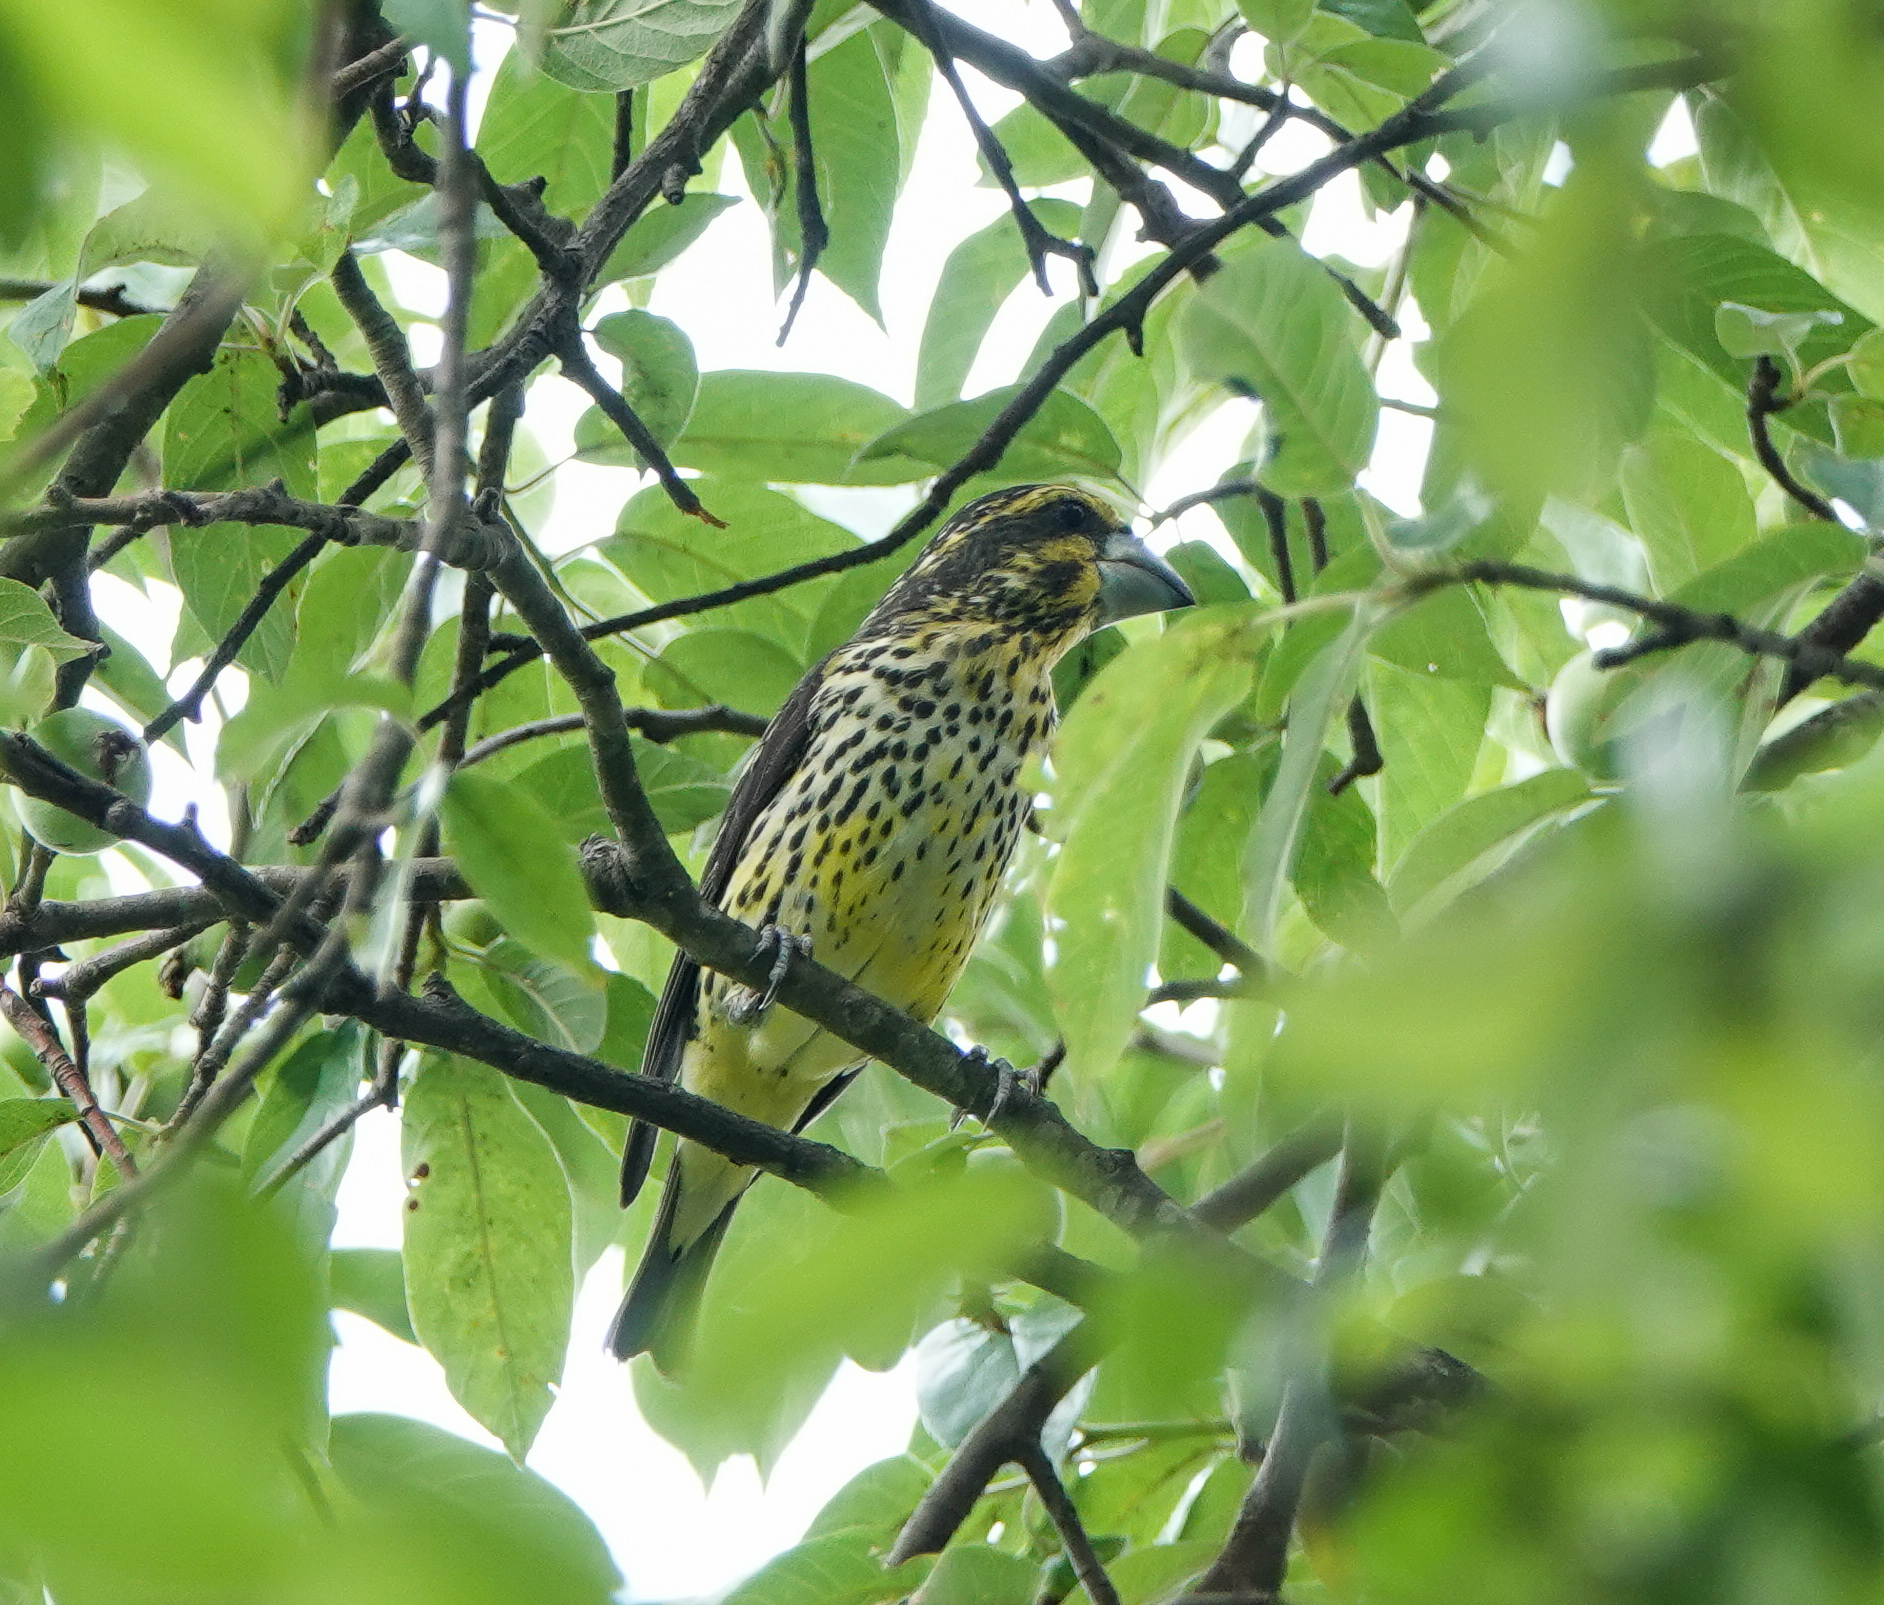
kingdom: Animalia
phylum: Chordata
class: Aves
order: Passeriformes
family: Fringillidae
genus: Mycerobas
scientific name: Mycerobas melanozanthos
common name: Spot-winged grosbeak
